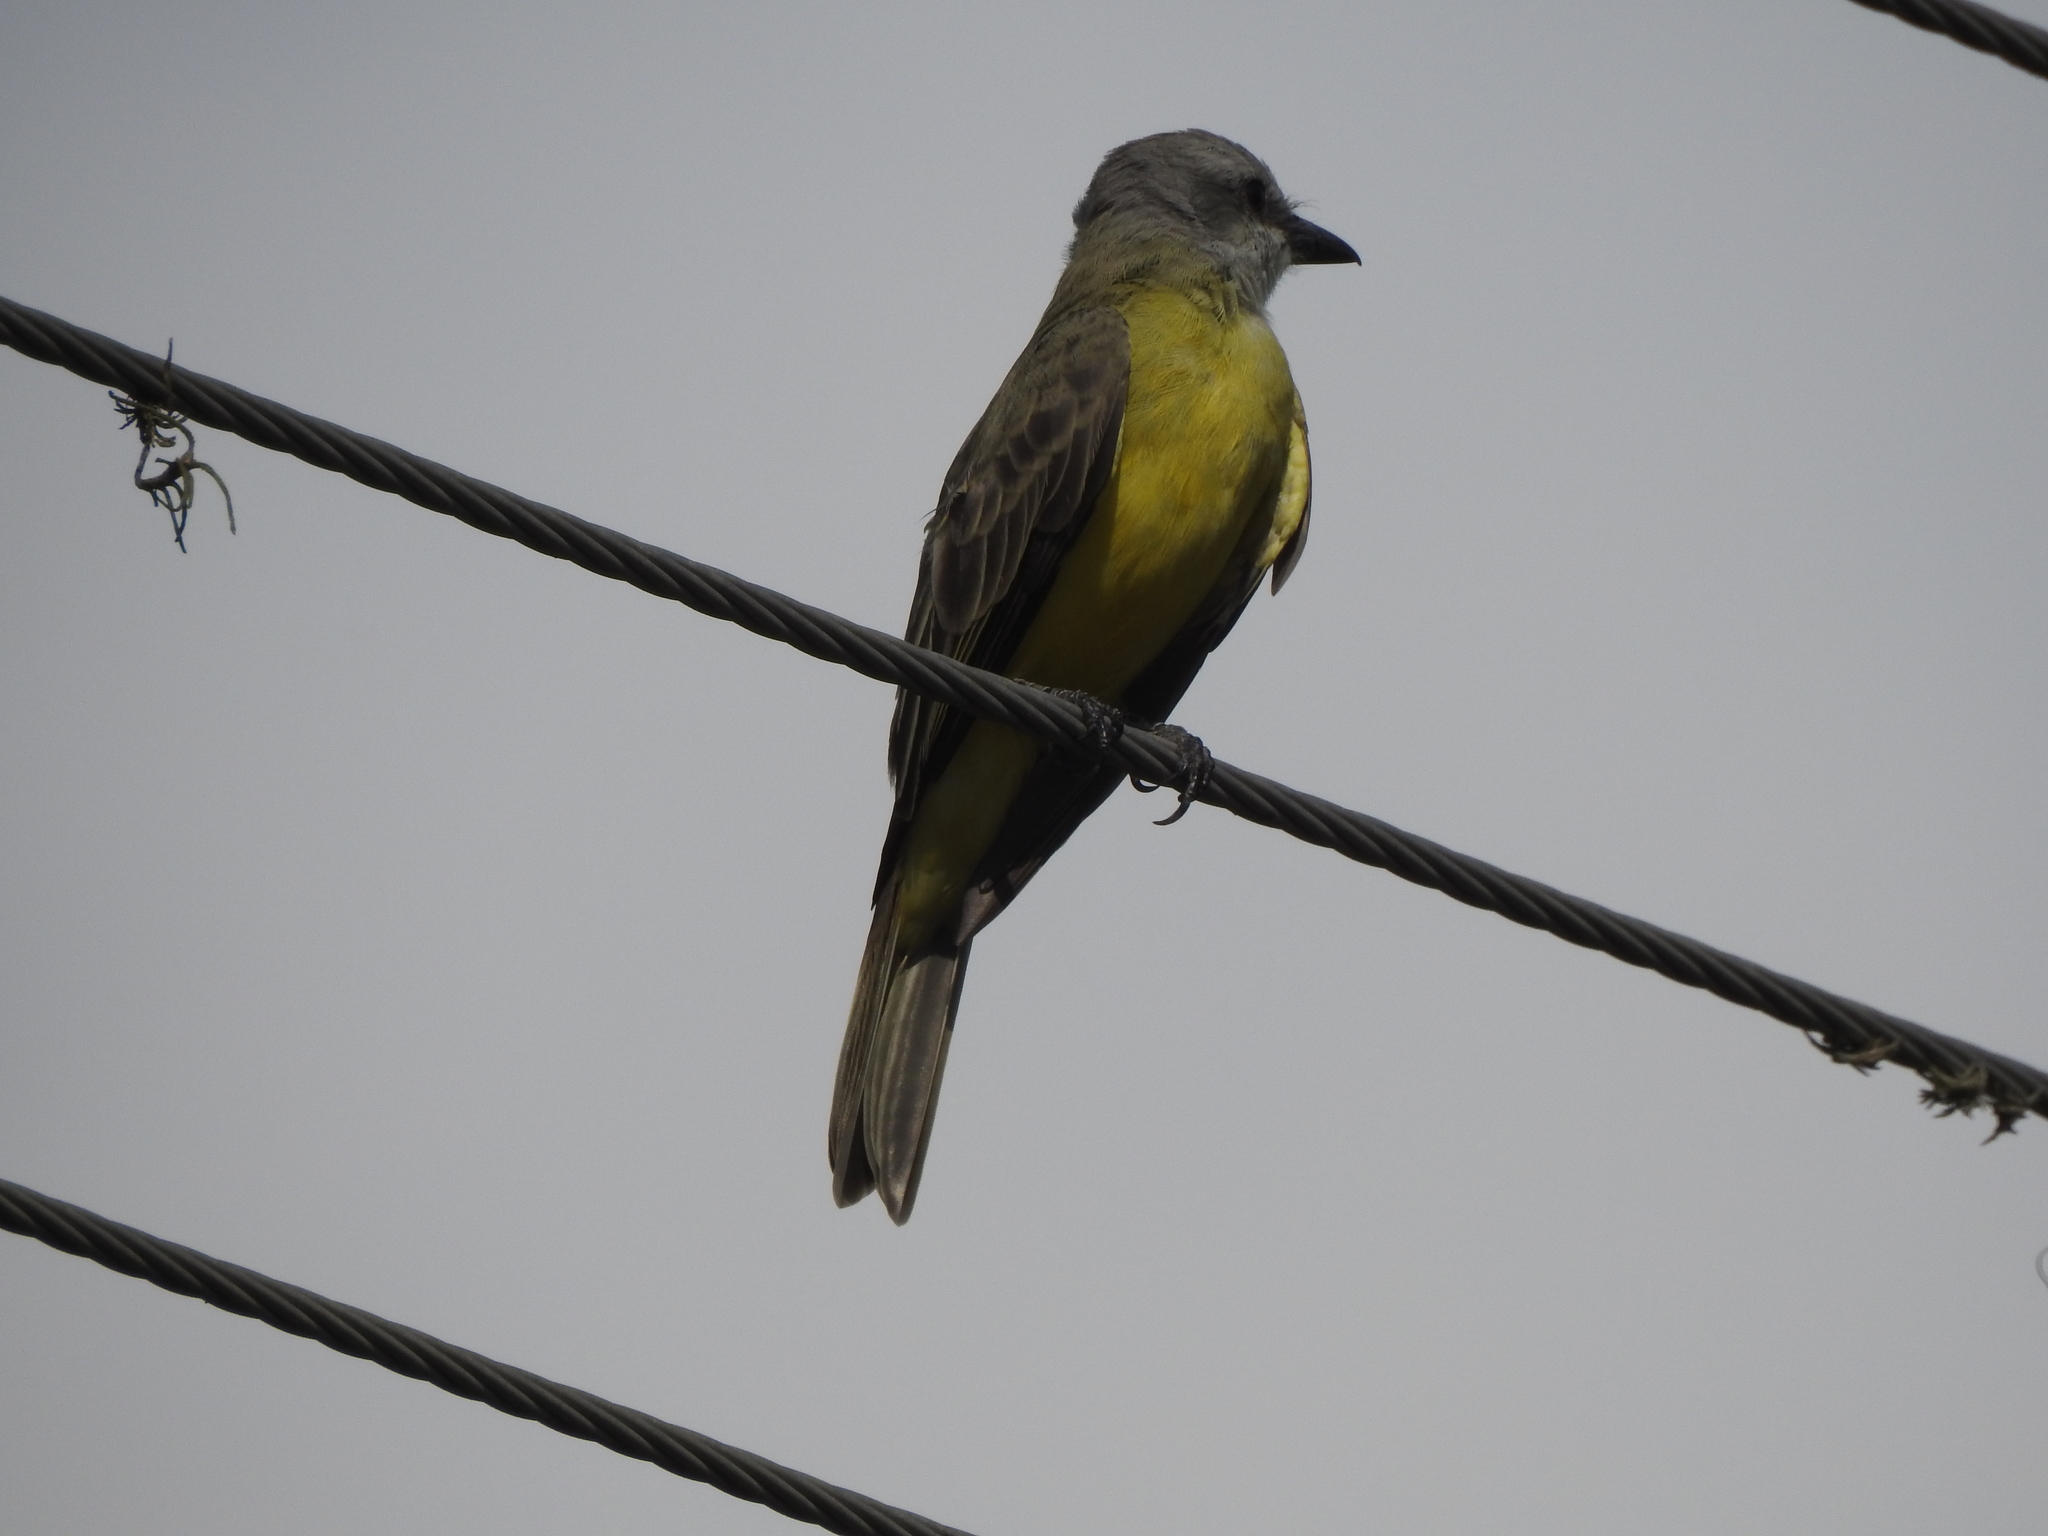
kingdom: Animalia
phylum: Chordata
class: Aves
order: Passeriformes
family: Tyrannidae
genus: Tyrannus
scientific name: Tyrannus
